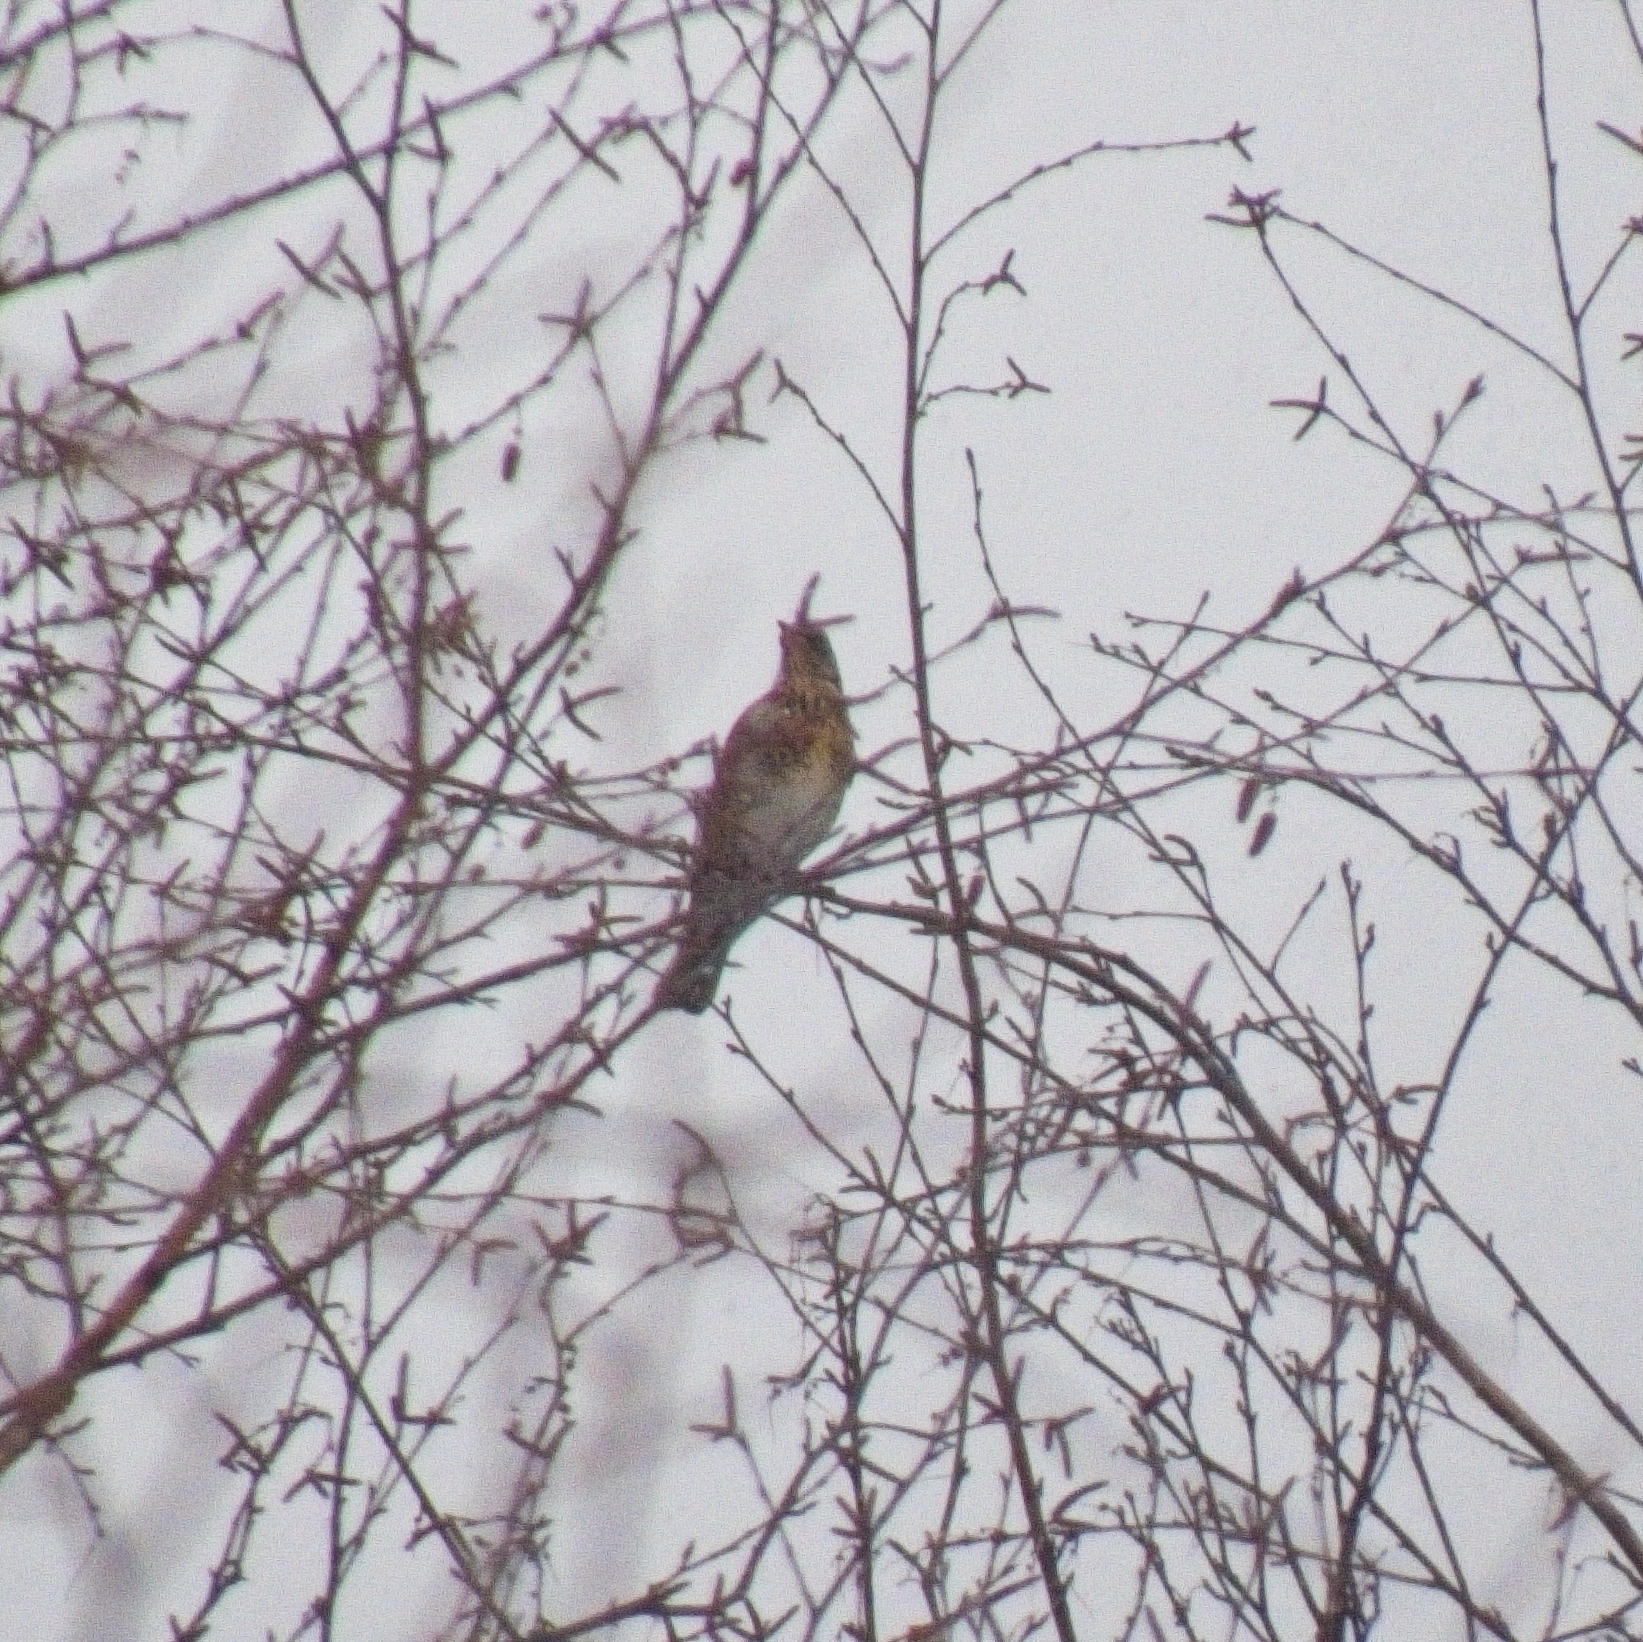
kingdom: Animalia
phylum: Chordata
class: Aves
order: Passeriformes
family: Turdidae
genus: Turdus
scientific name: Turdus pilaris
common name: Fieldfare
